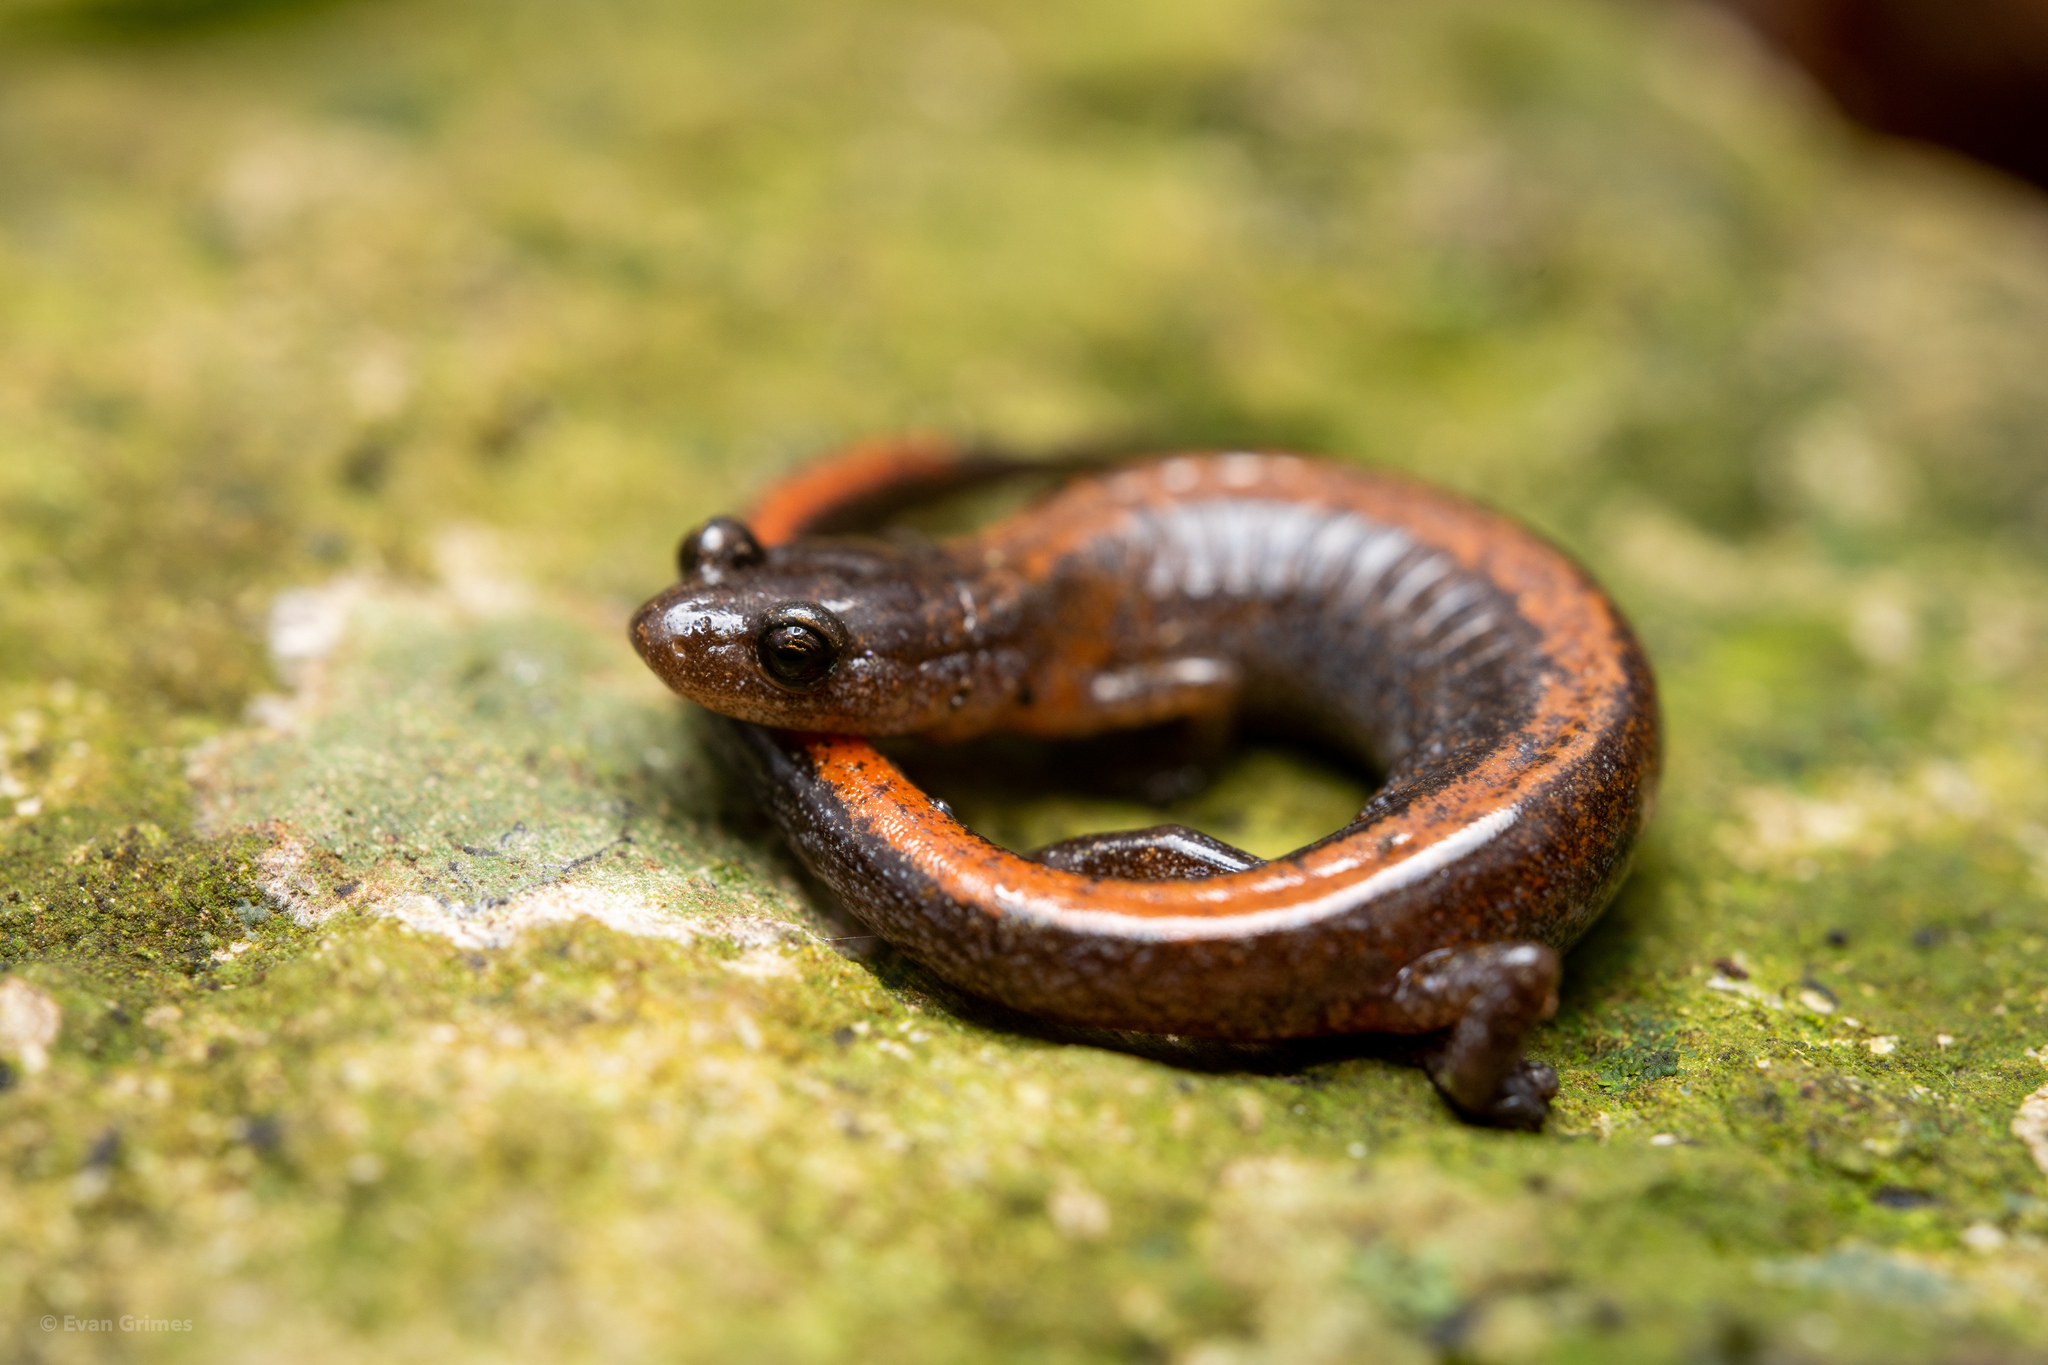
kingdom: Animalia
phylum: Chordata
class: Amphibia
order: Caudata
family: Plethodontidae
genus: Plethodon
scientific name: Plethodon dorsalis
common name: Northern zigzag salamander
